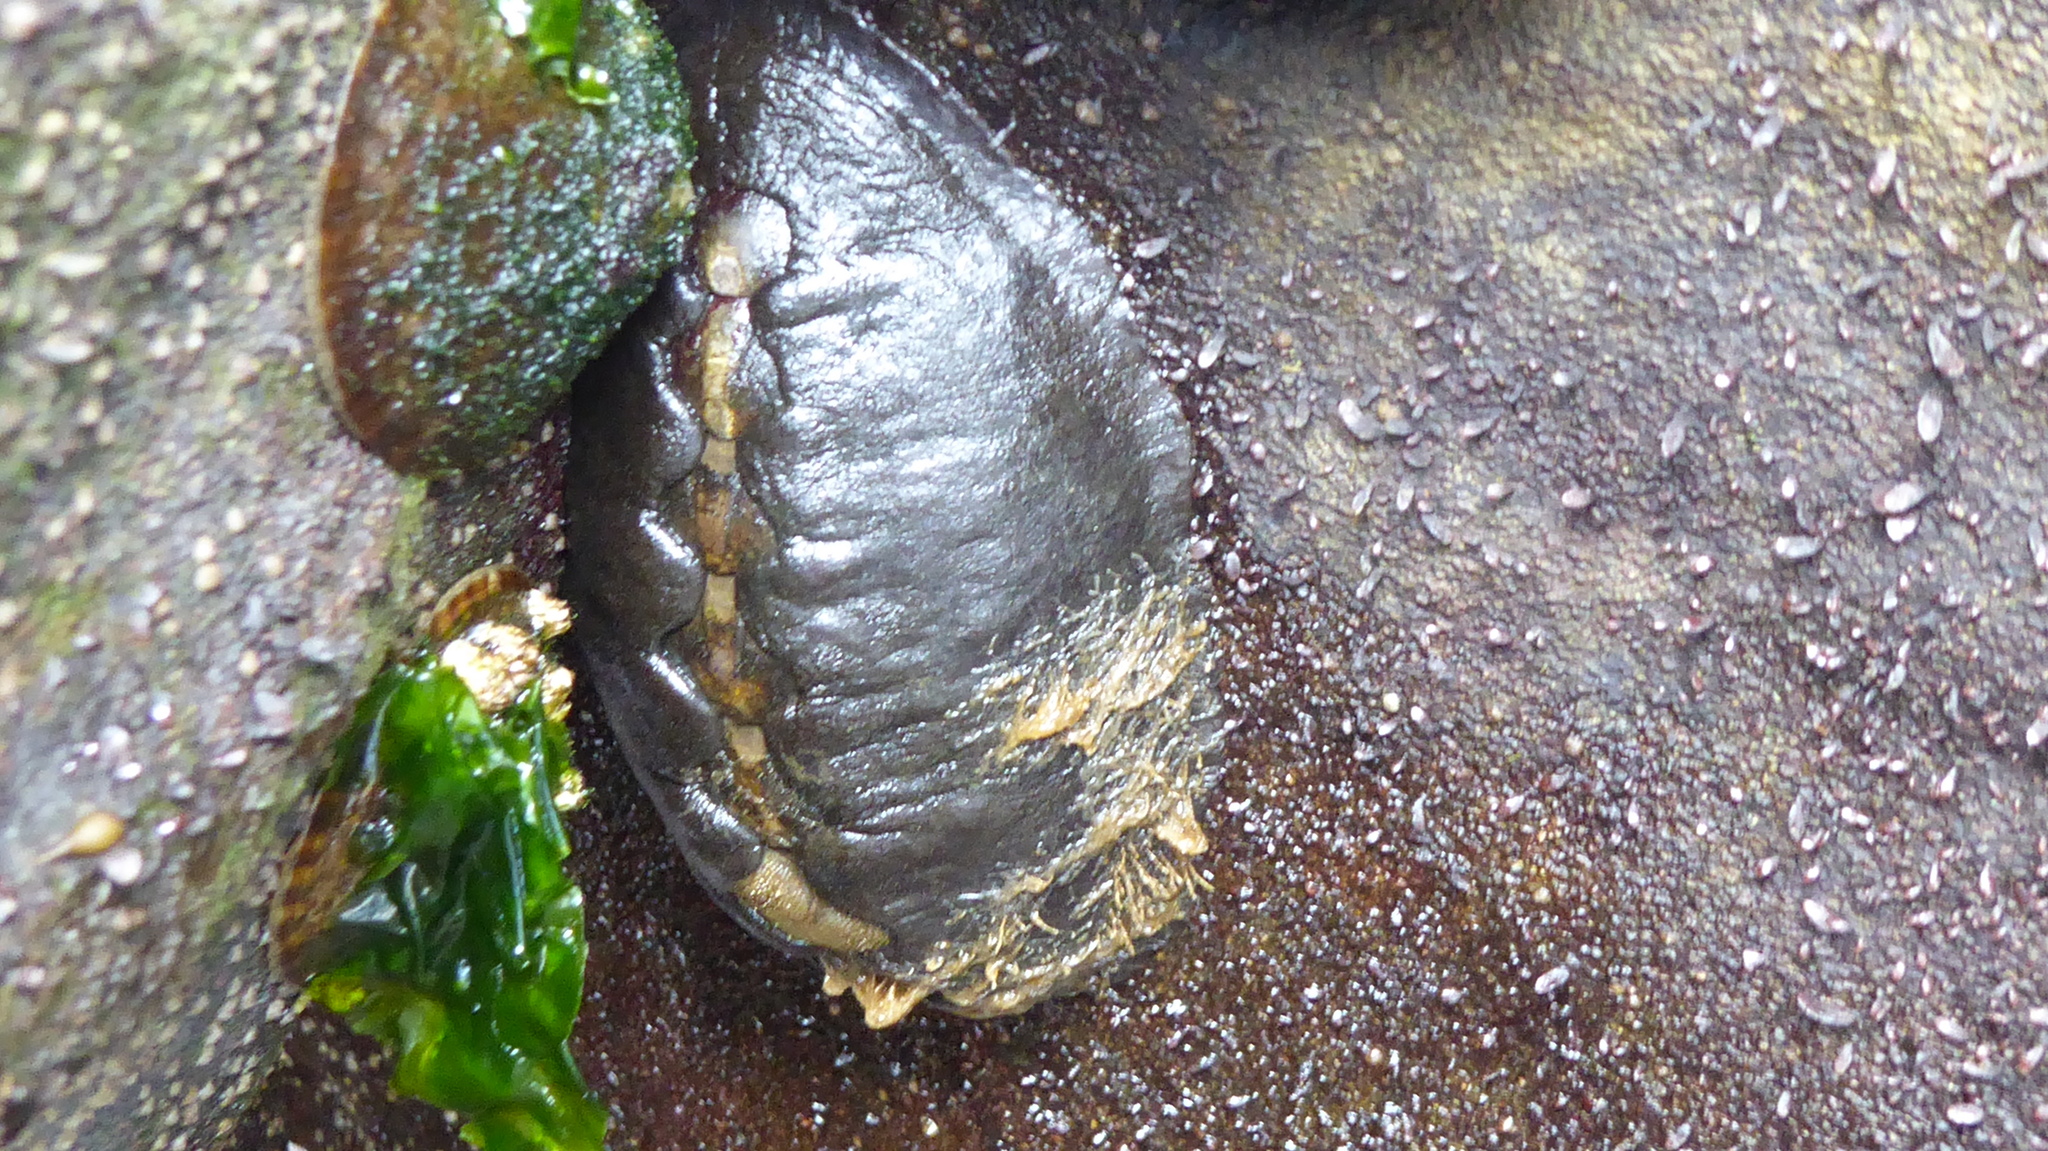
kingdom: Animalia
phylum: Mollusca
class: Polyplacophora
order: Chitonida
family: Mopaliidae
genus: Katharina
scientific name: Katharina tunicata
